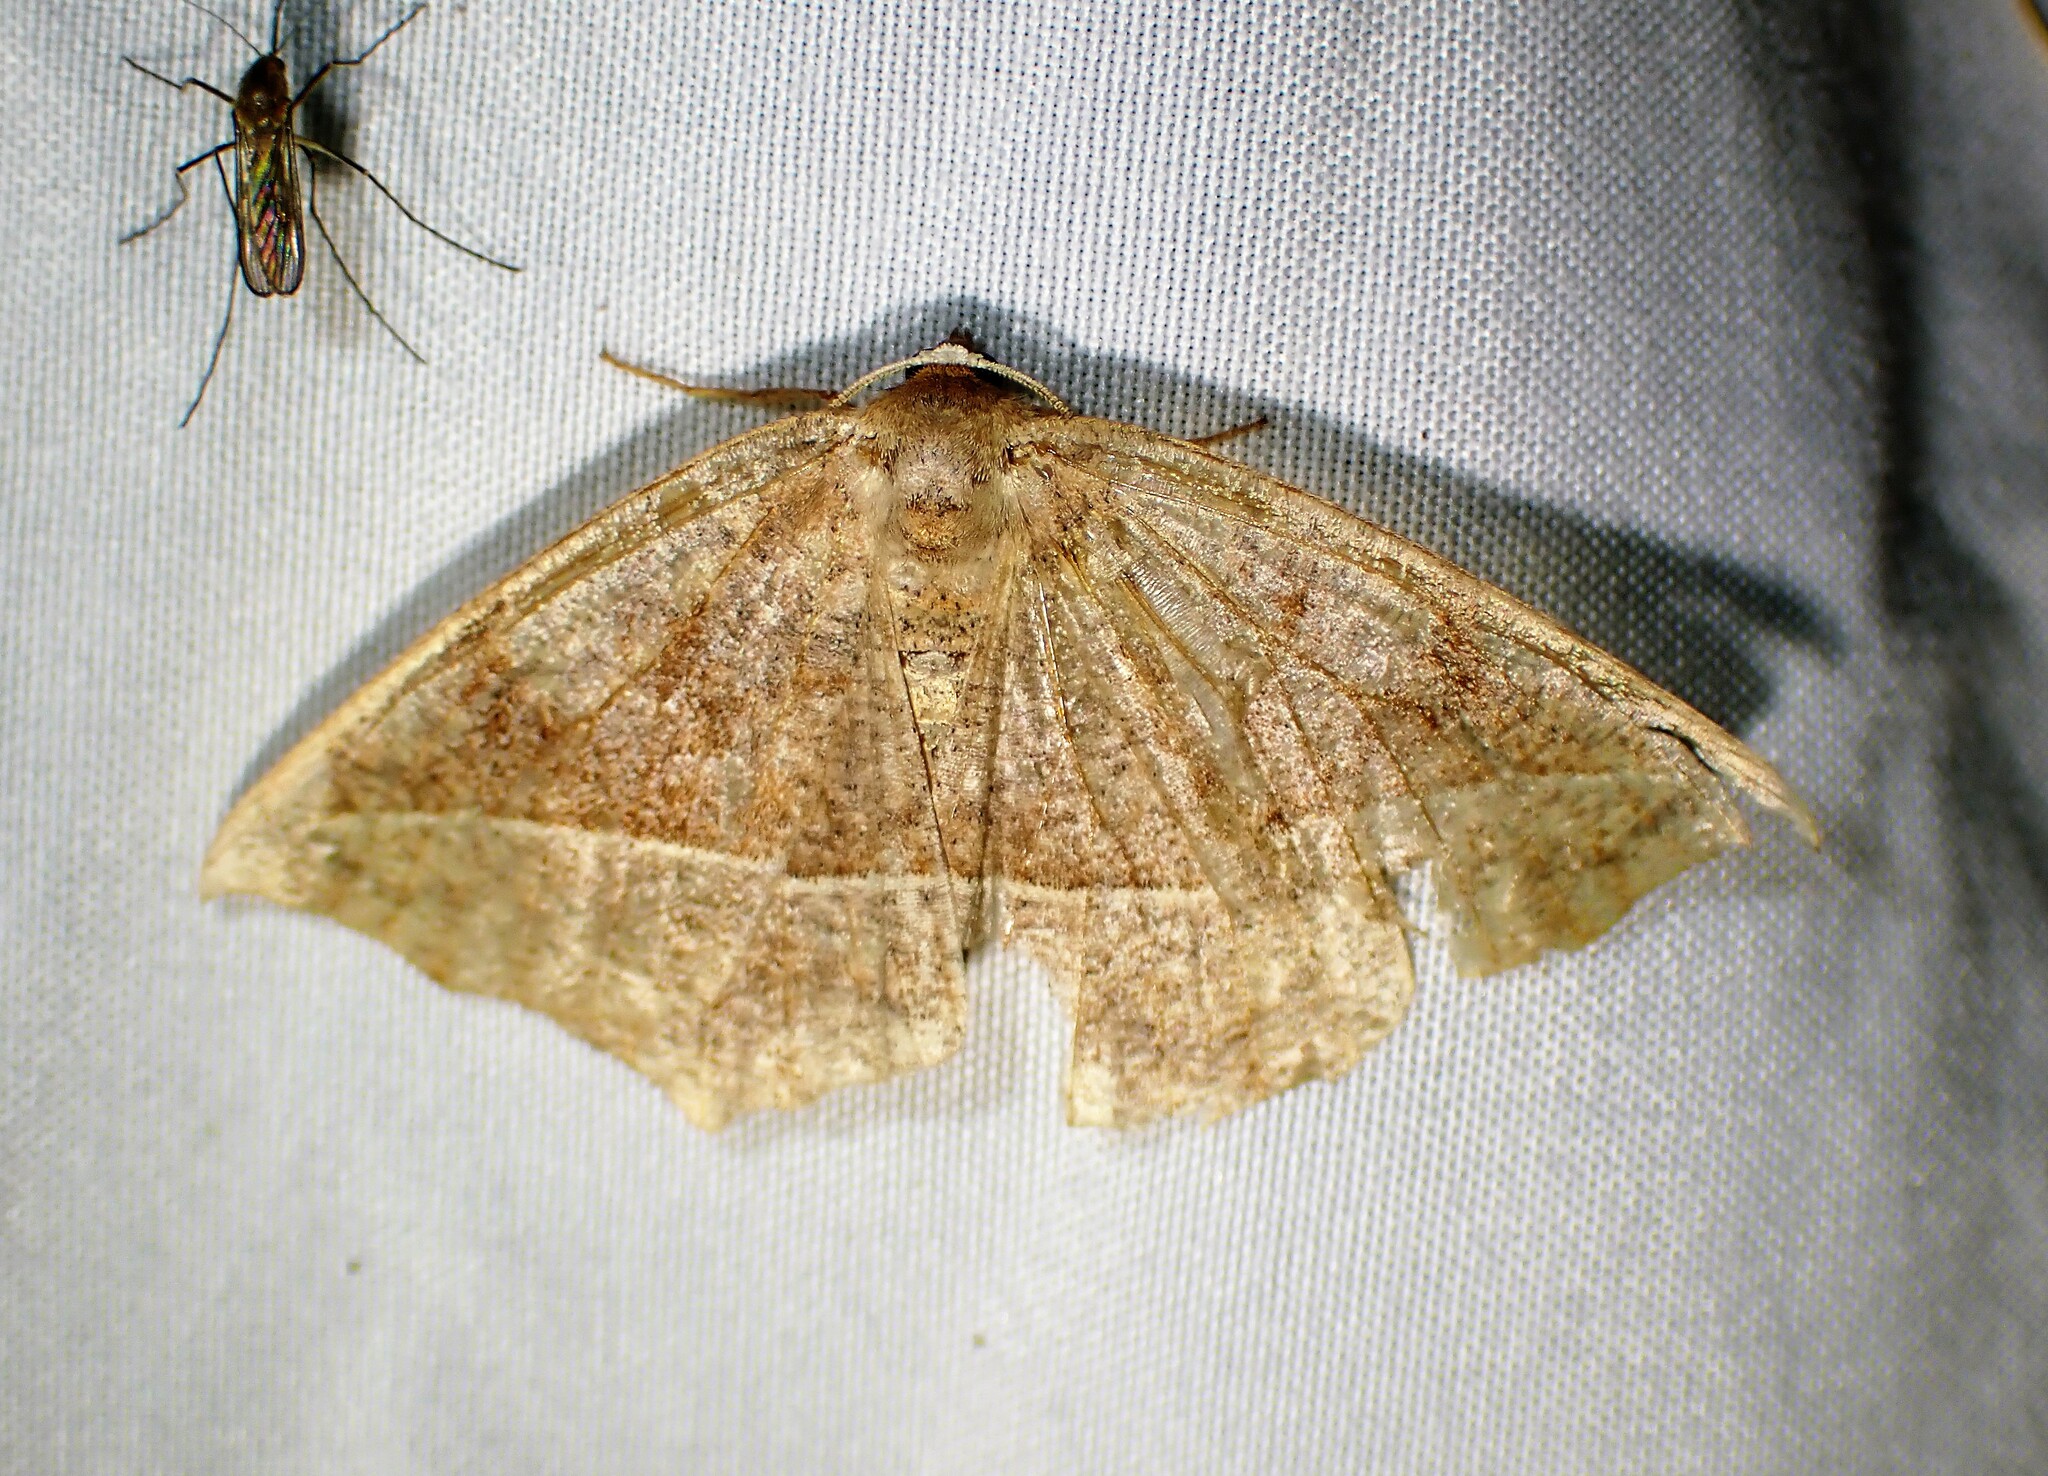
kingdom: Animalia
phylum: Arthropoda
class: Insecta
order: Lepidoptera
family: Geometridae
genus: Eutrapela
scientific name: Eutrapela clemataria
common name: Curved-toothed geometer
